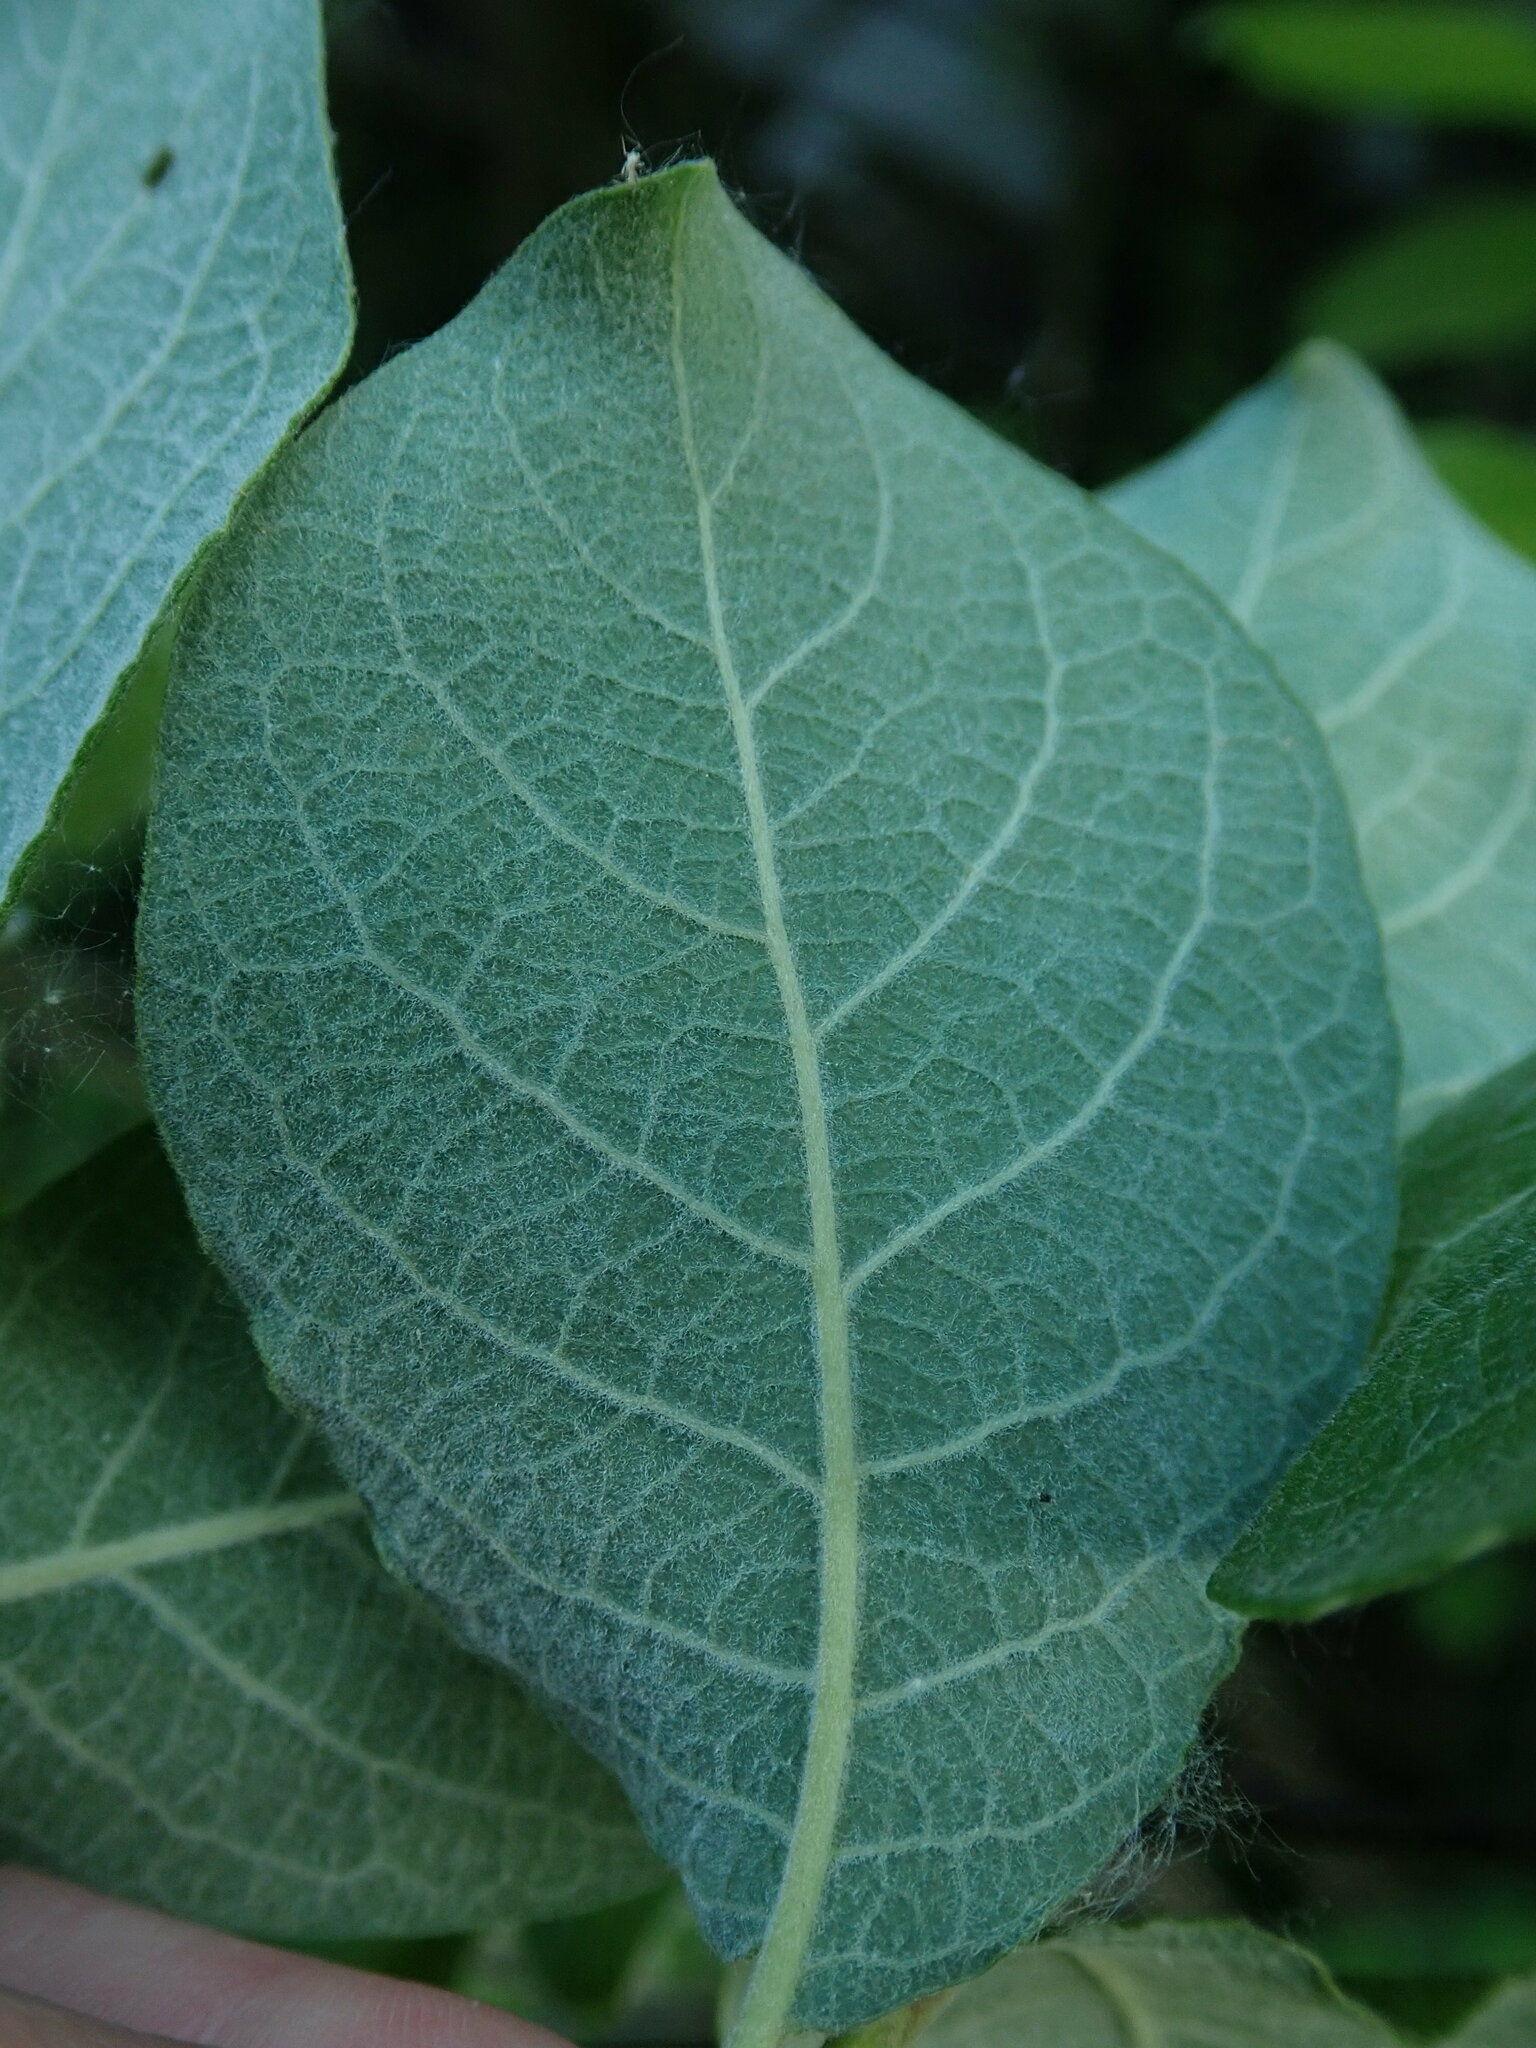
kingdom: Plantae
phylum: Tracheophyta
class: Magnoliopsida
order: Malpighiales
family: Salicaceae
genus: Salix
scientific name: Salix caprea
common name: Goat willow
